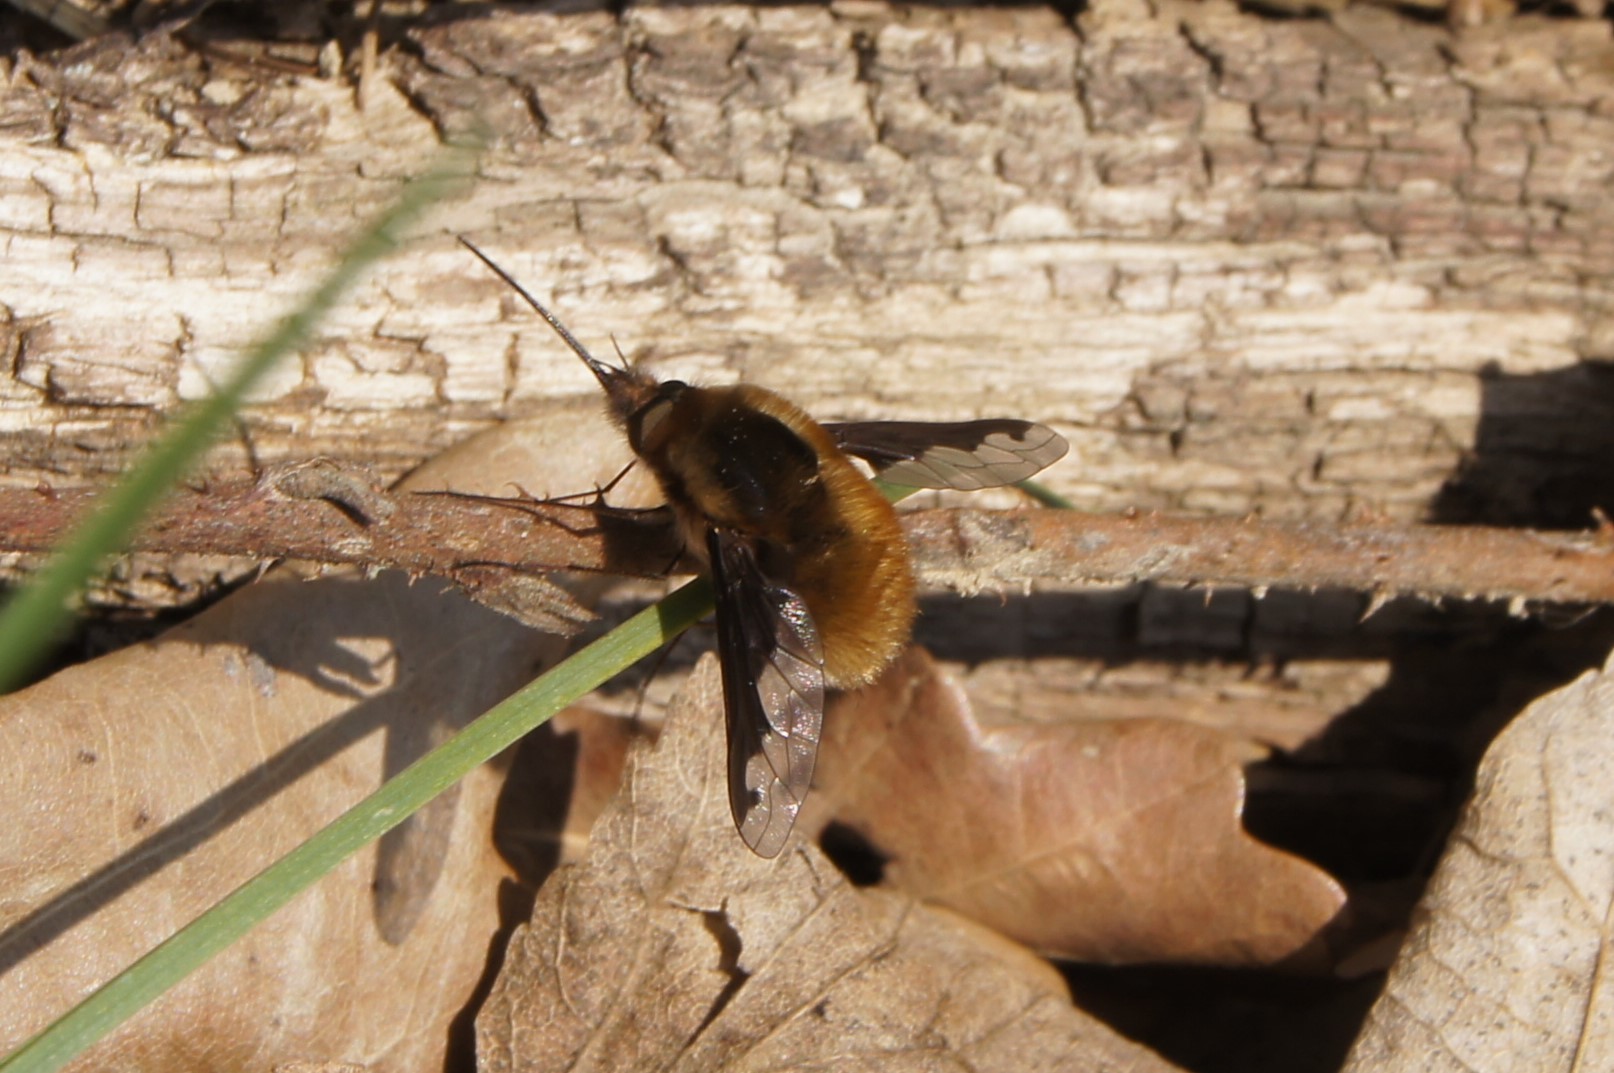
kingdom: Animalia
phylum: Arthropoda
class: Insecta
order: Diptera
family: Bombyliidae
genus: Bombylius
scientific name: Bombylius major
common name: Bee fly
